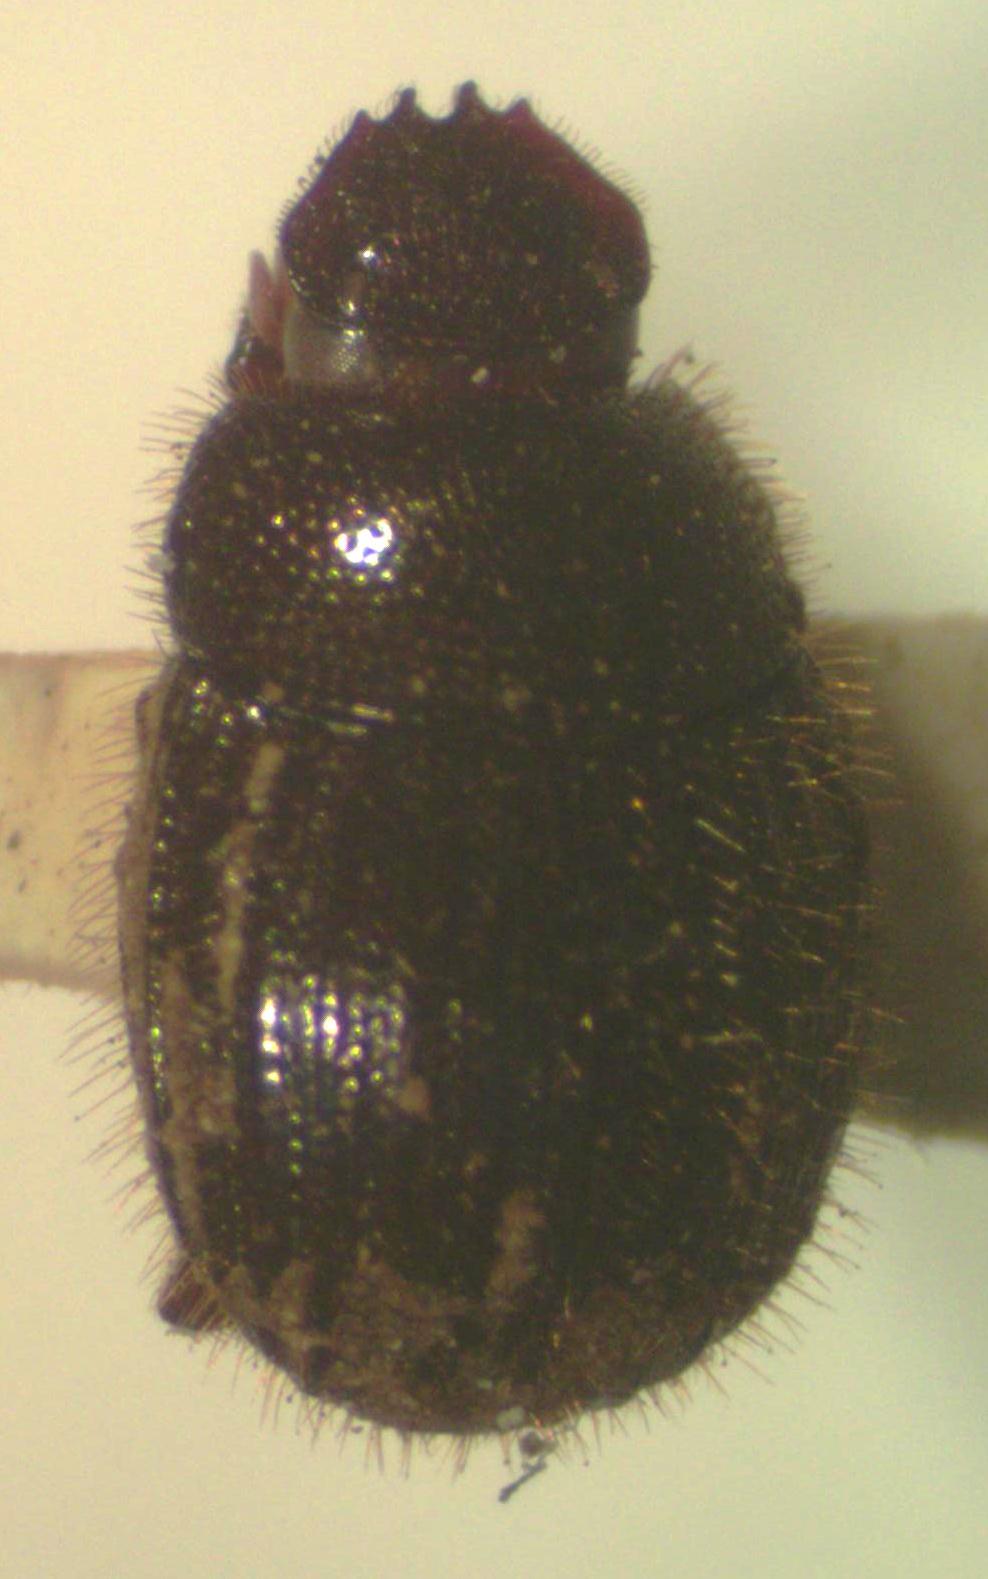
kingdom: Animalia
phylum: Arthropoda
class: Insecta
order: Coleoptera
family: Scarabaeidae
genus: Trichillidium
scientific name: Trichillidium pilosum
